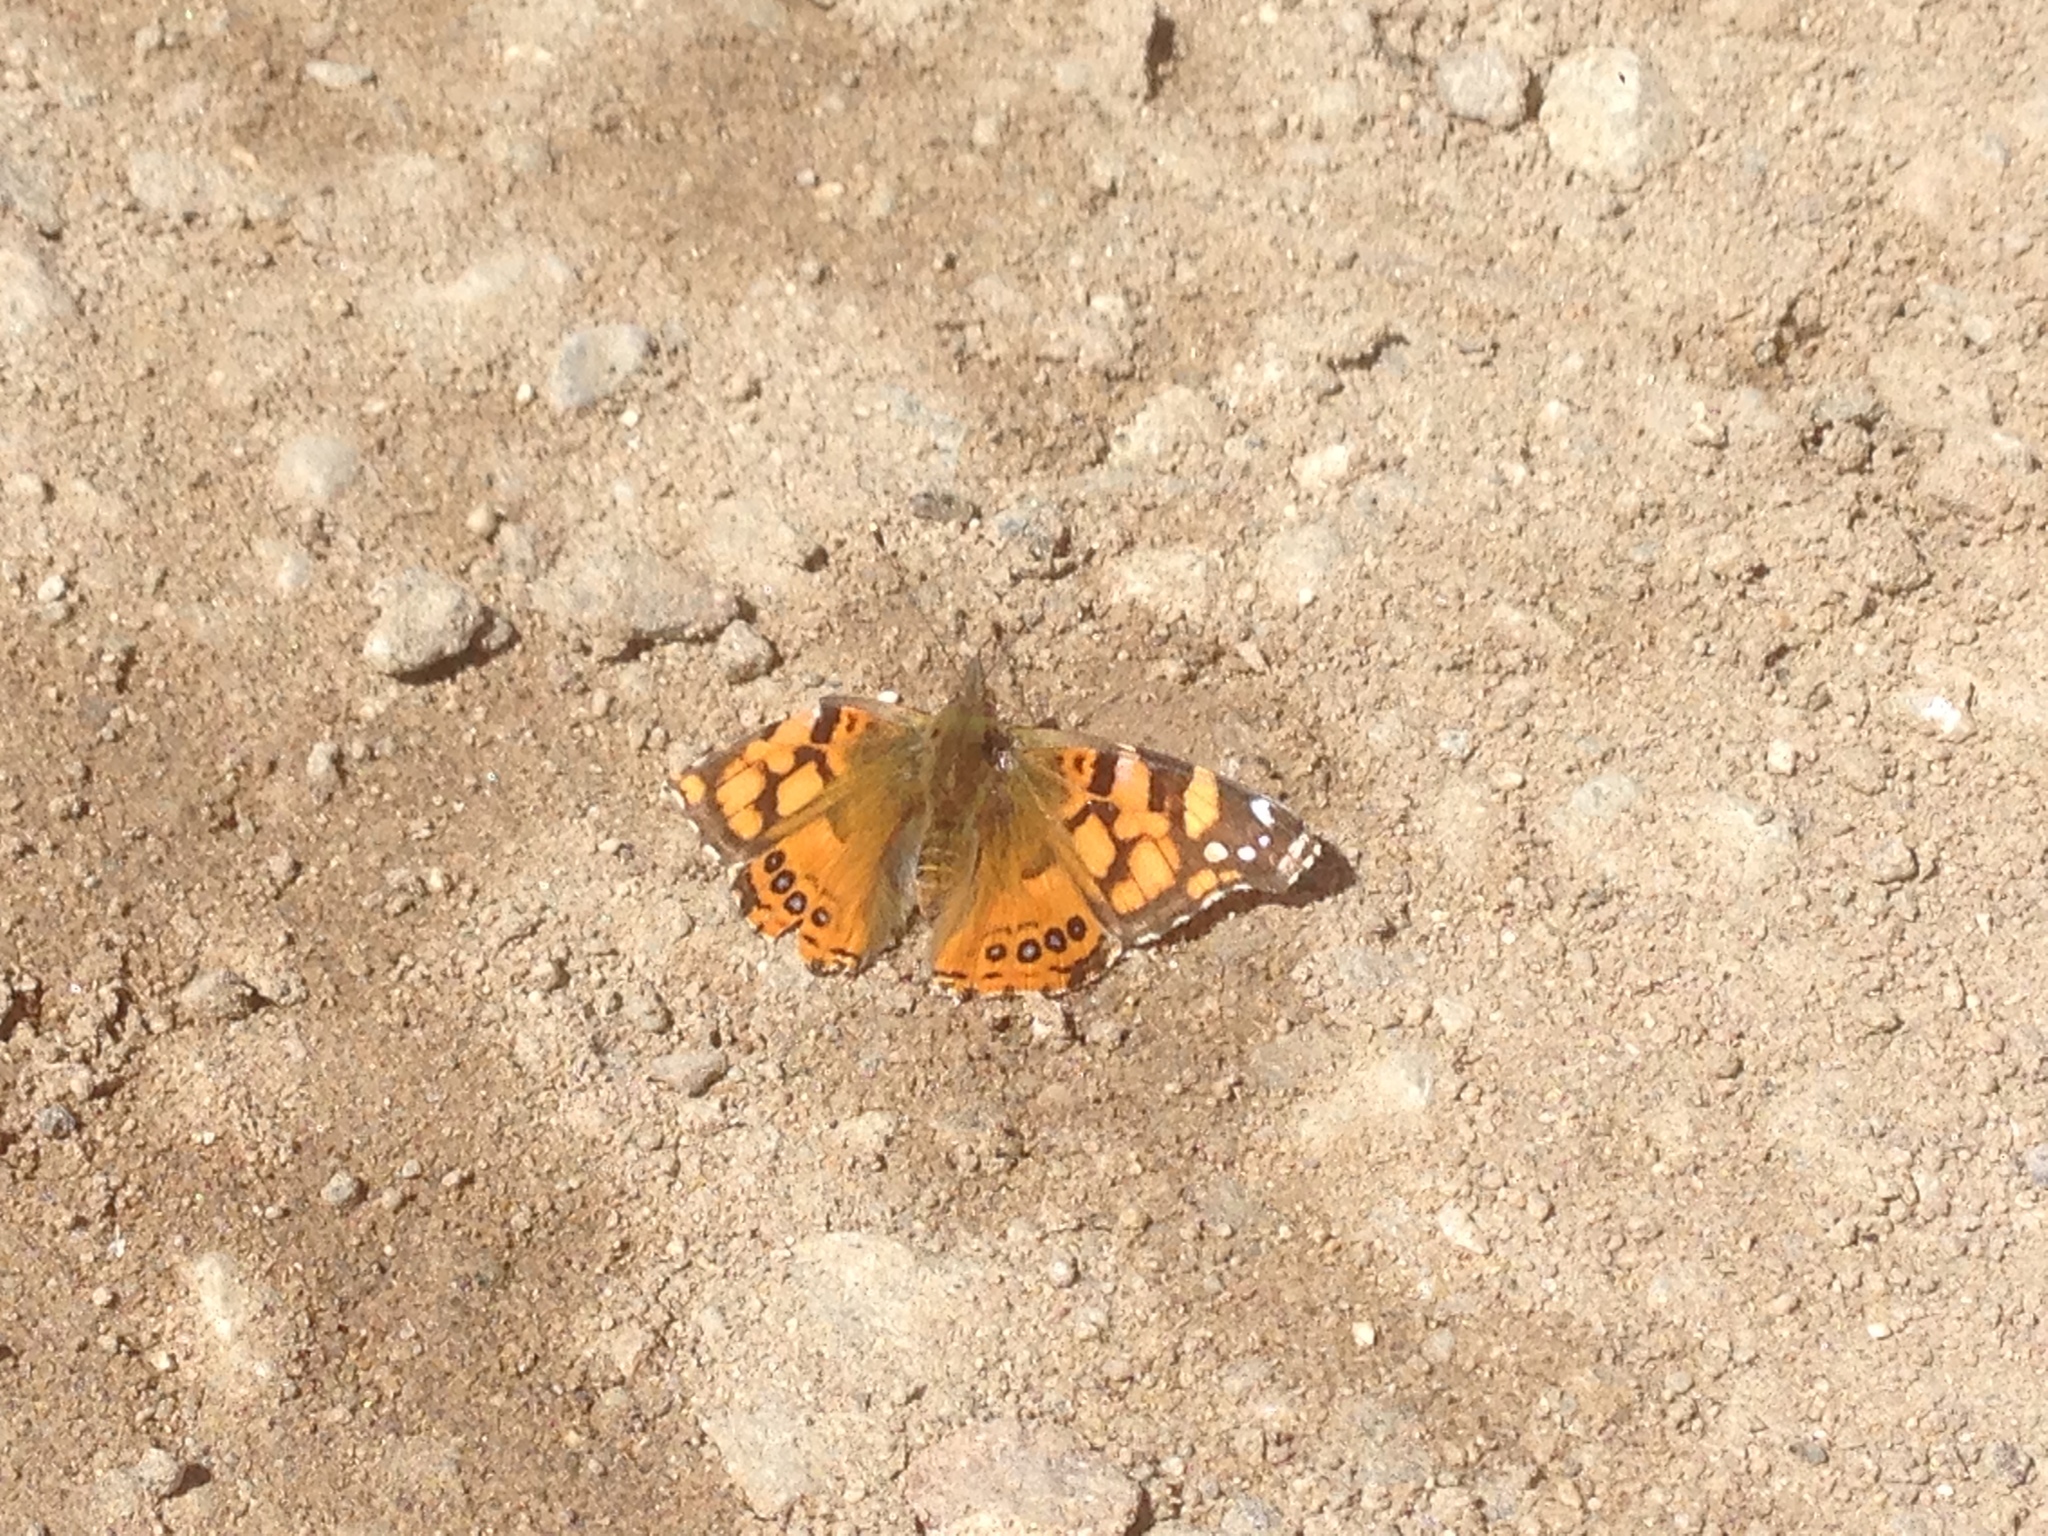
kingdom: Animalia
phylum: Arthropoda
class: Insecta
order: Lepidoptera
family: Nymphalidae
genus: Vanessa
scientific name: Vanessa annabella
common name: West coast lady
